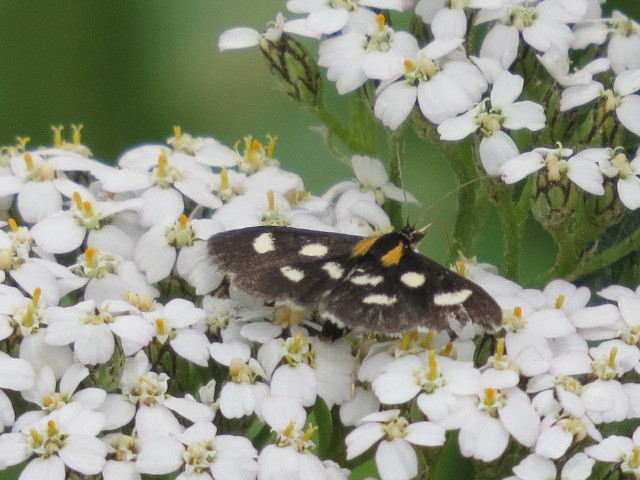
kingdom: Animalia
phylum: Arthropoda
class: Insecta
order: Lepidoptera
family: Crambidae
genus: Anania
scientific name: Anania funebris
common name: White-spotted sable moth
